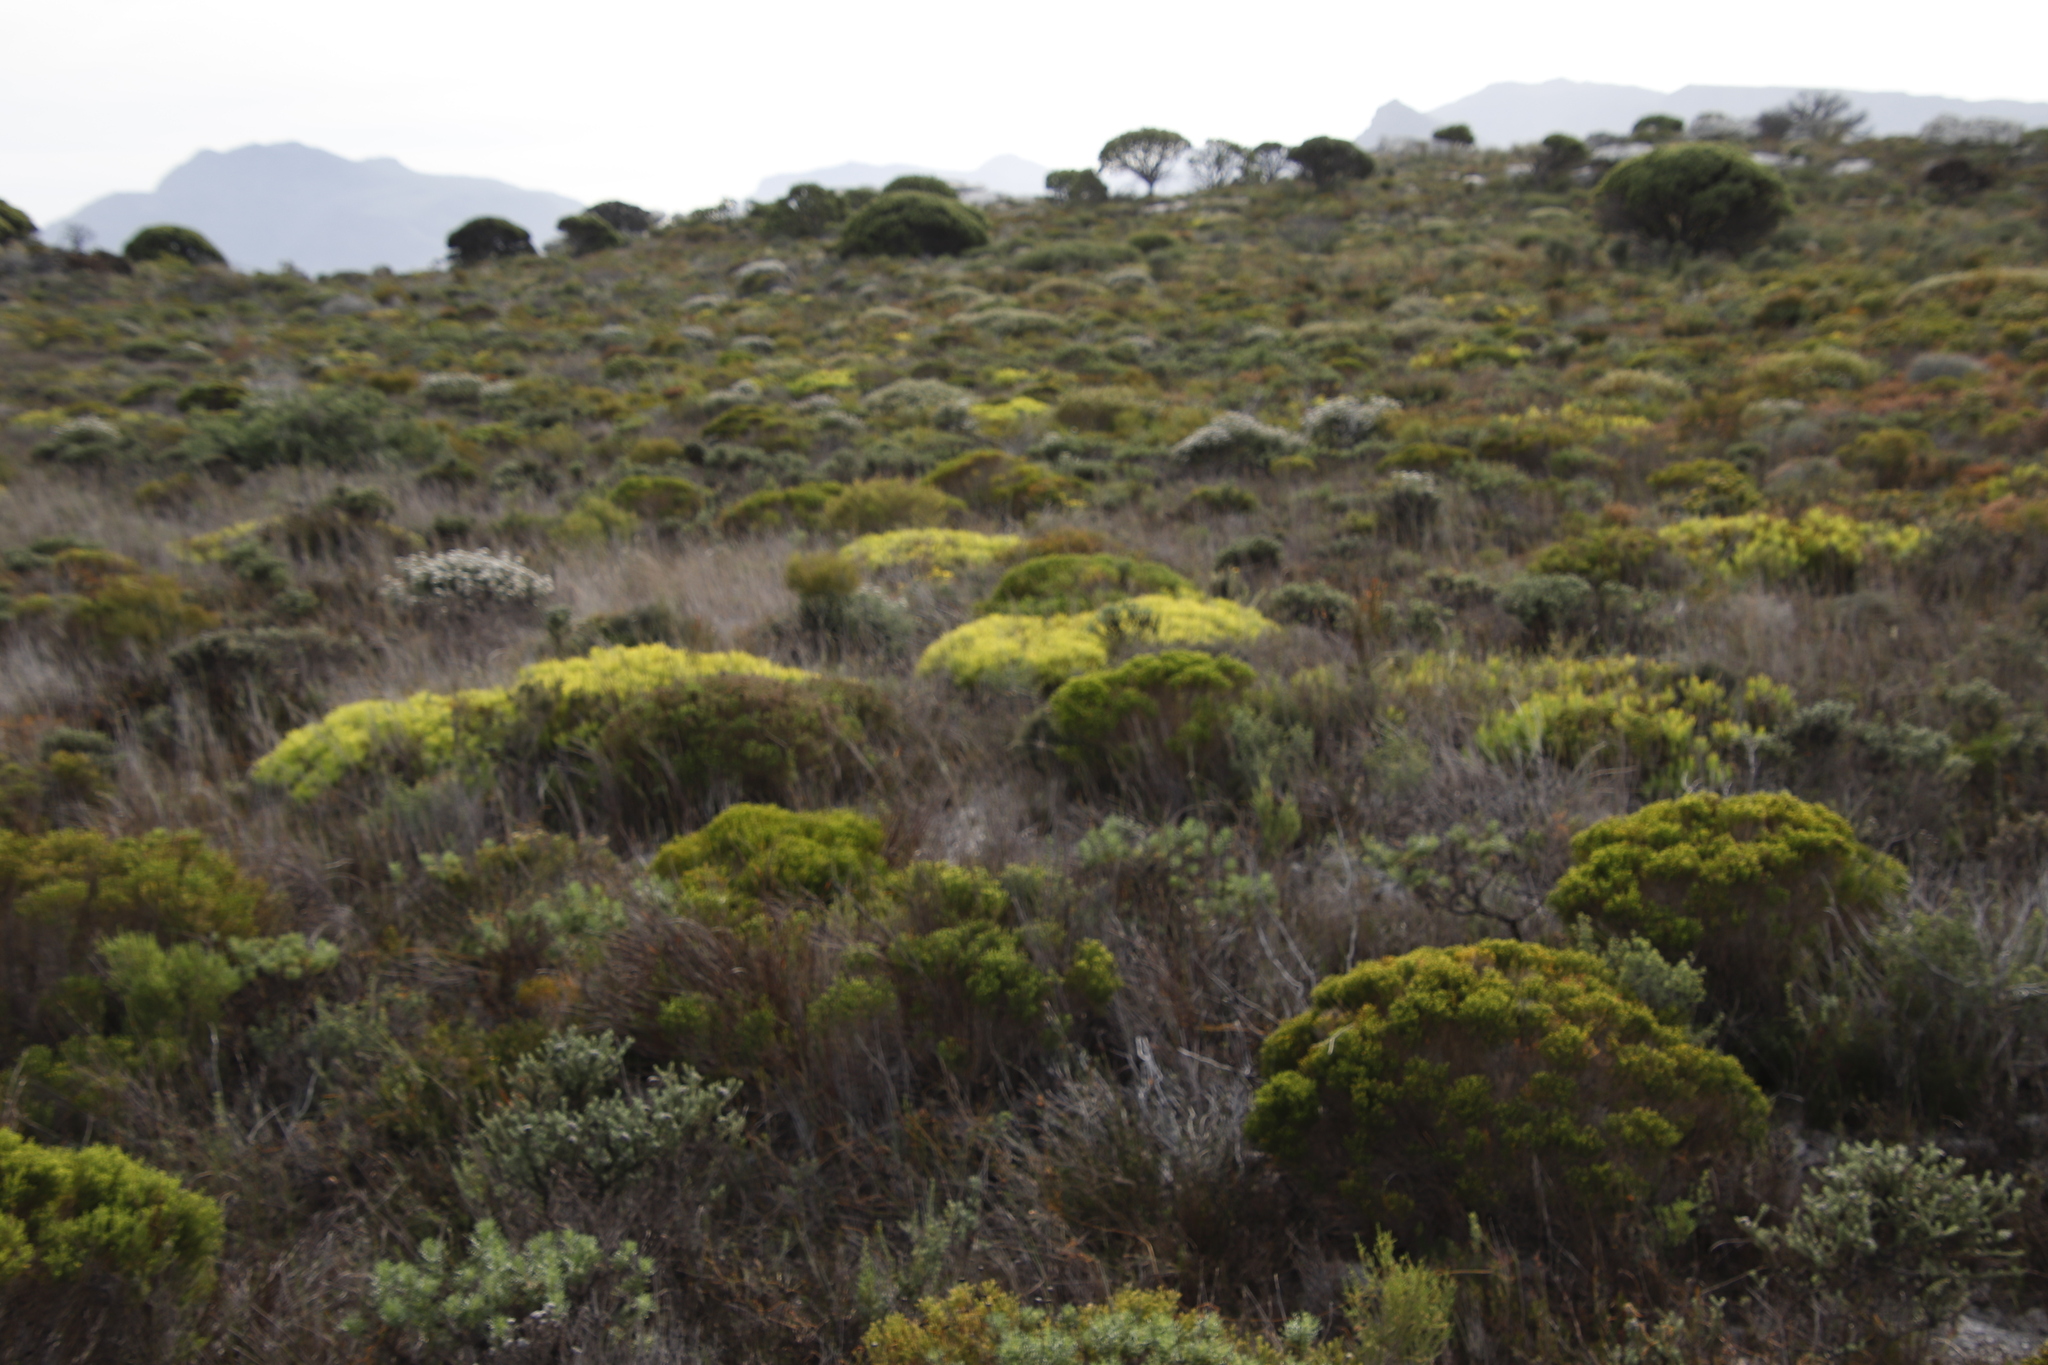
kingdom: Plantae
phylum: Tracheophyta
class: Magnoliopsida
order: Proteales
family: Proteaceae
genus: Leucadendron
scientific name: Leucadendron salignum
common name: Common sunshine conebush
